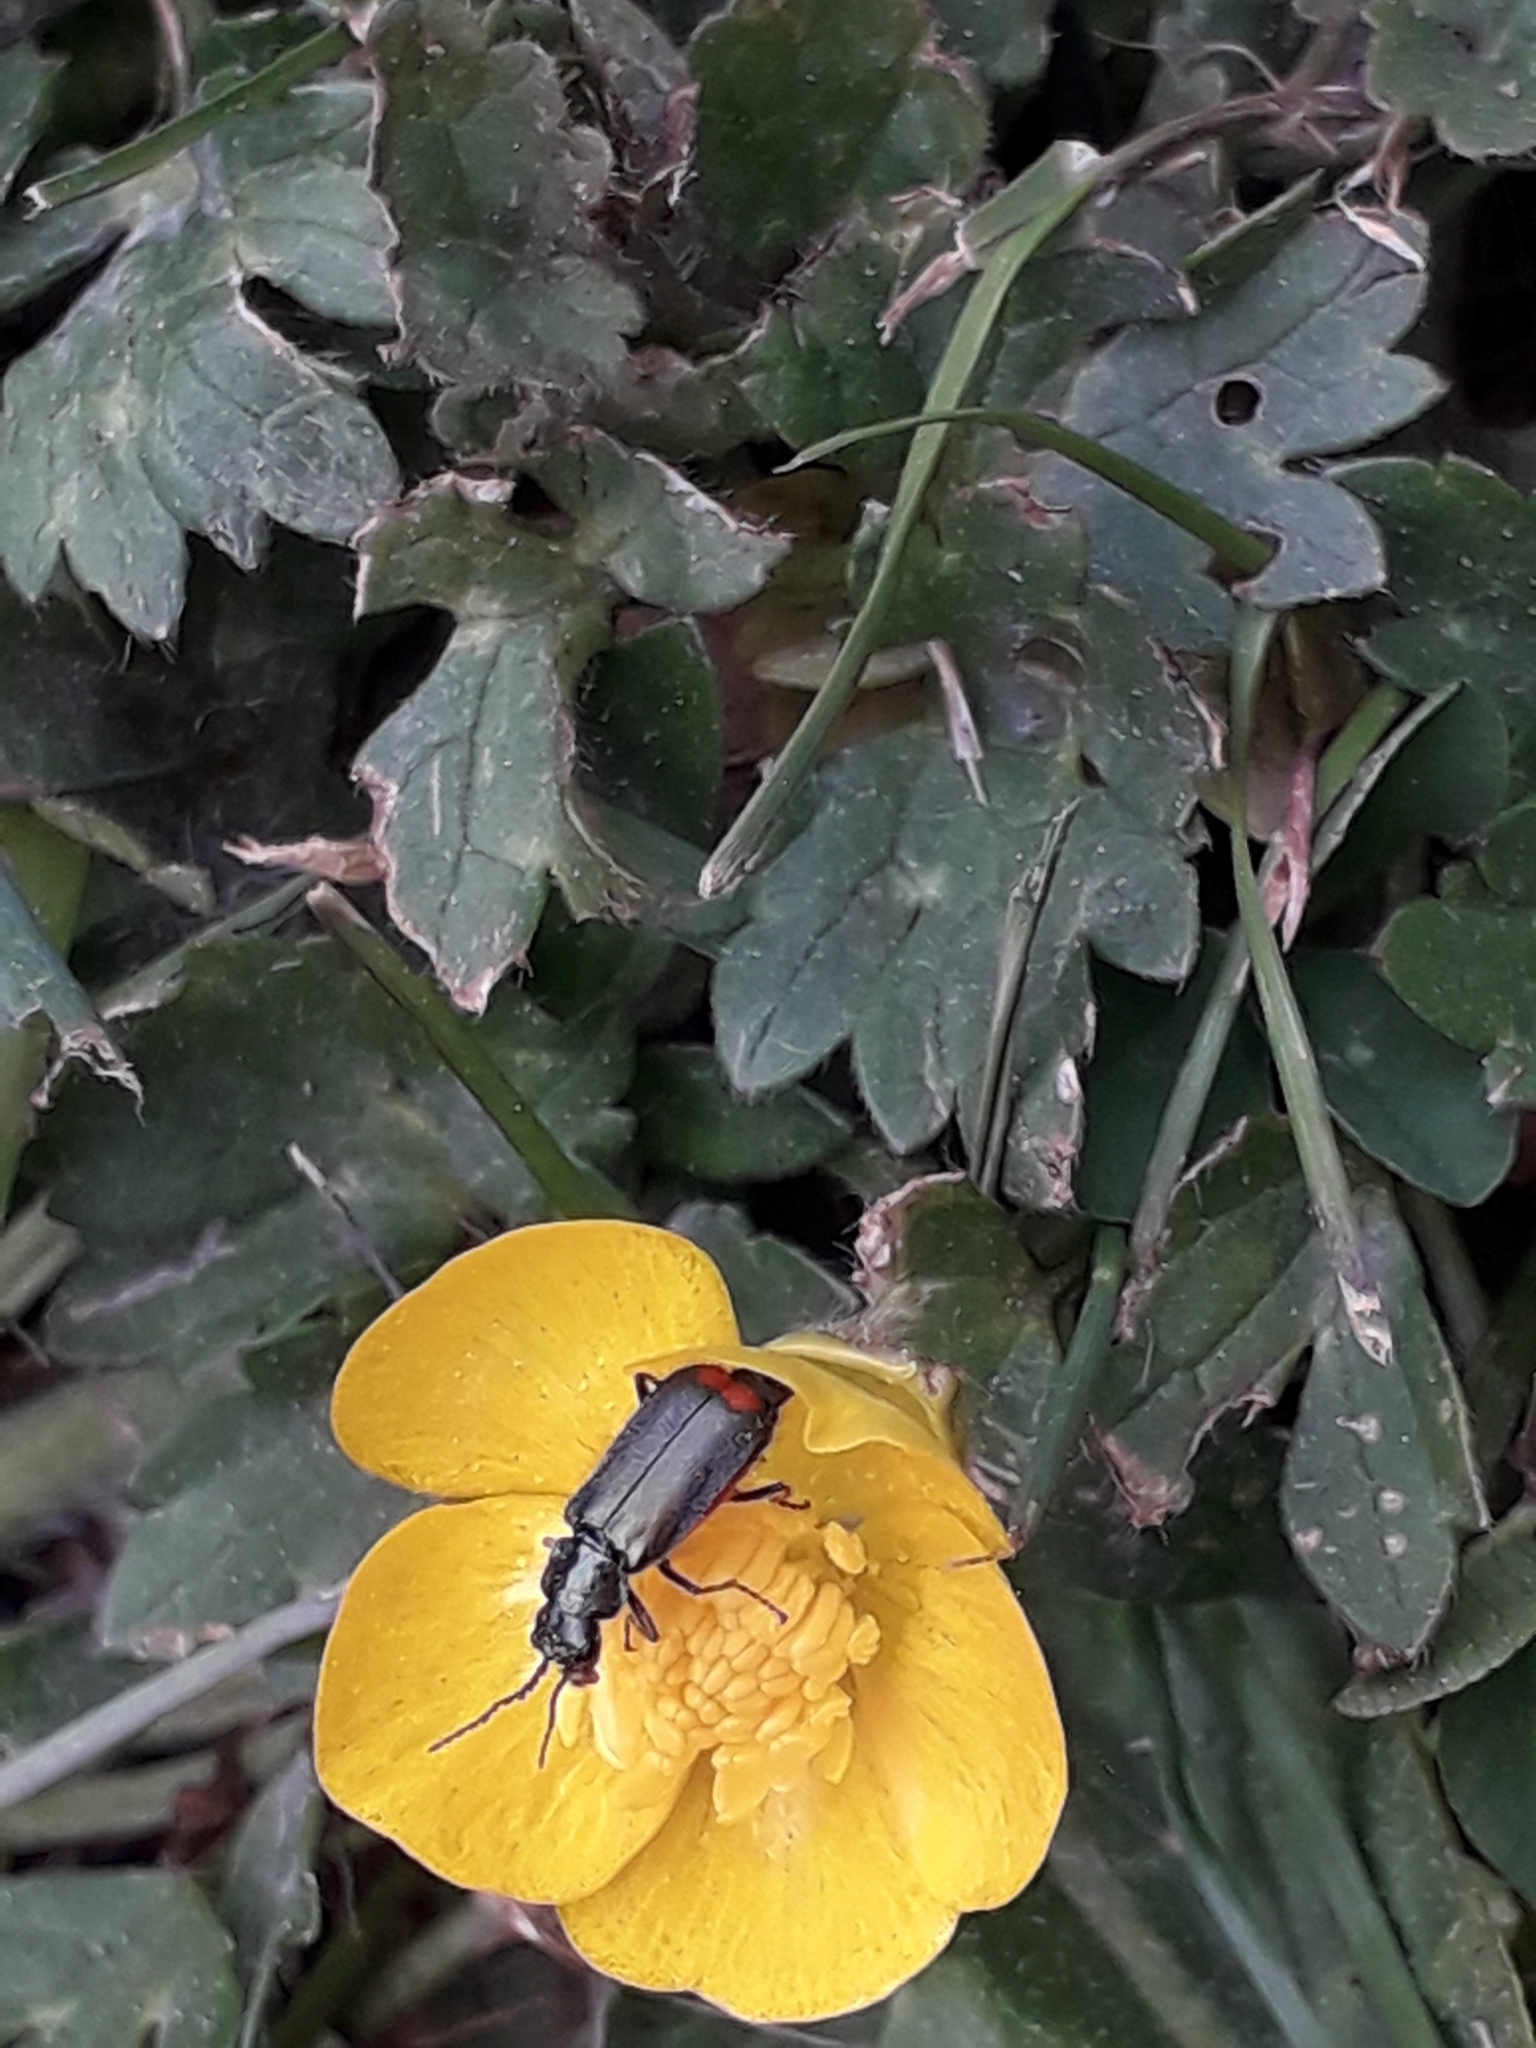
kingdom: Animalia
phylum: Arthropoda
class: Insecta
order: Coleoptera
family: Melyridae
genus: Malachius
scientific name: Malachius bipustulatus
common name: Malachite beetle
